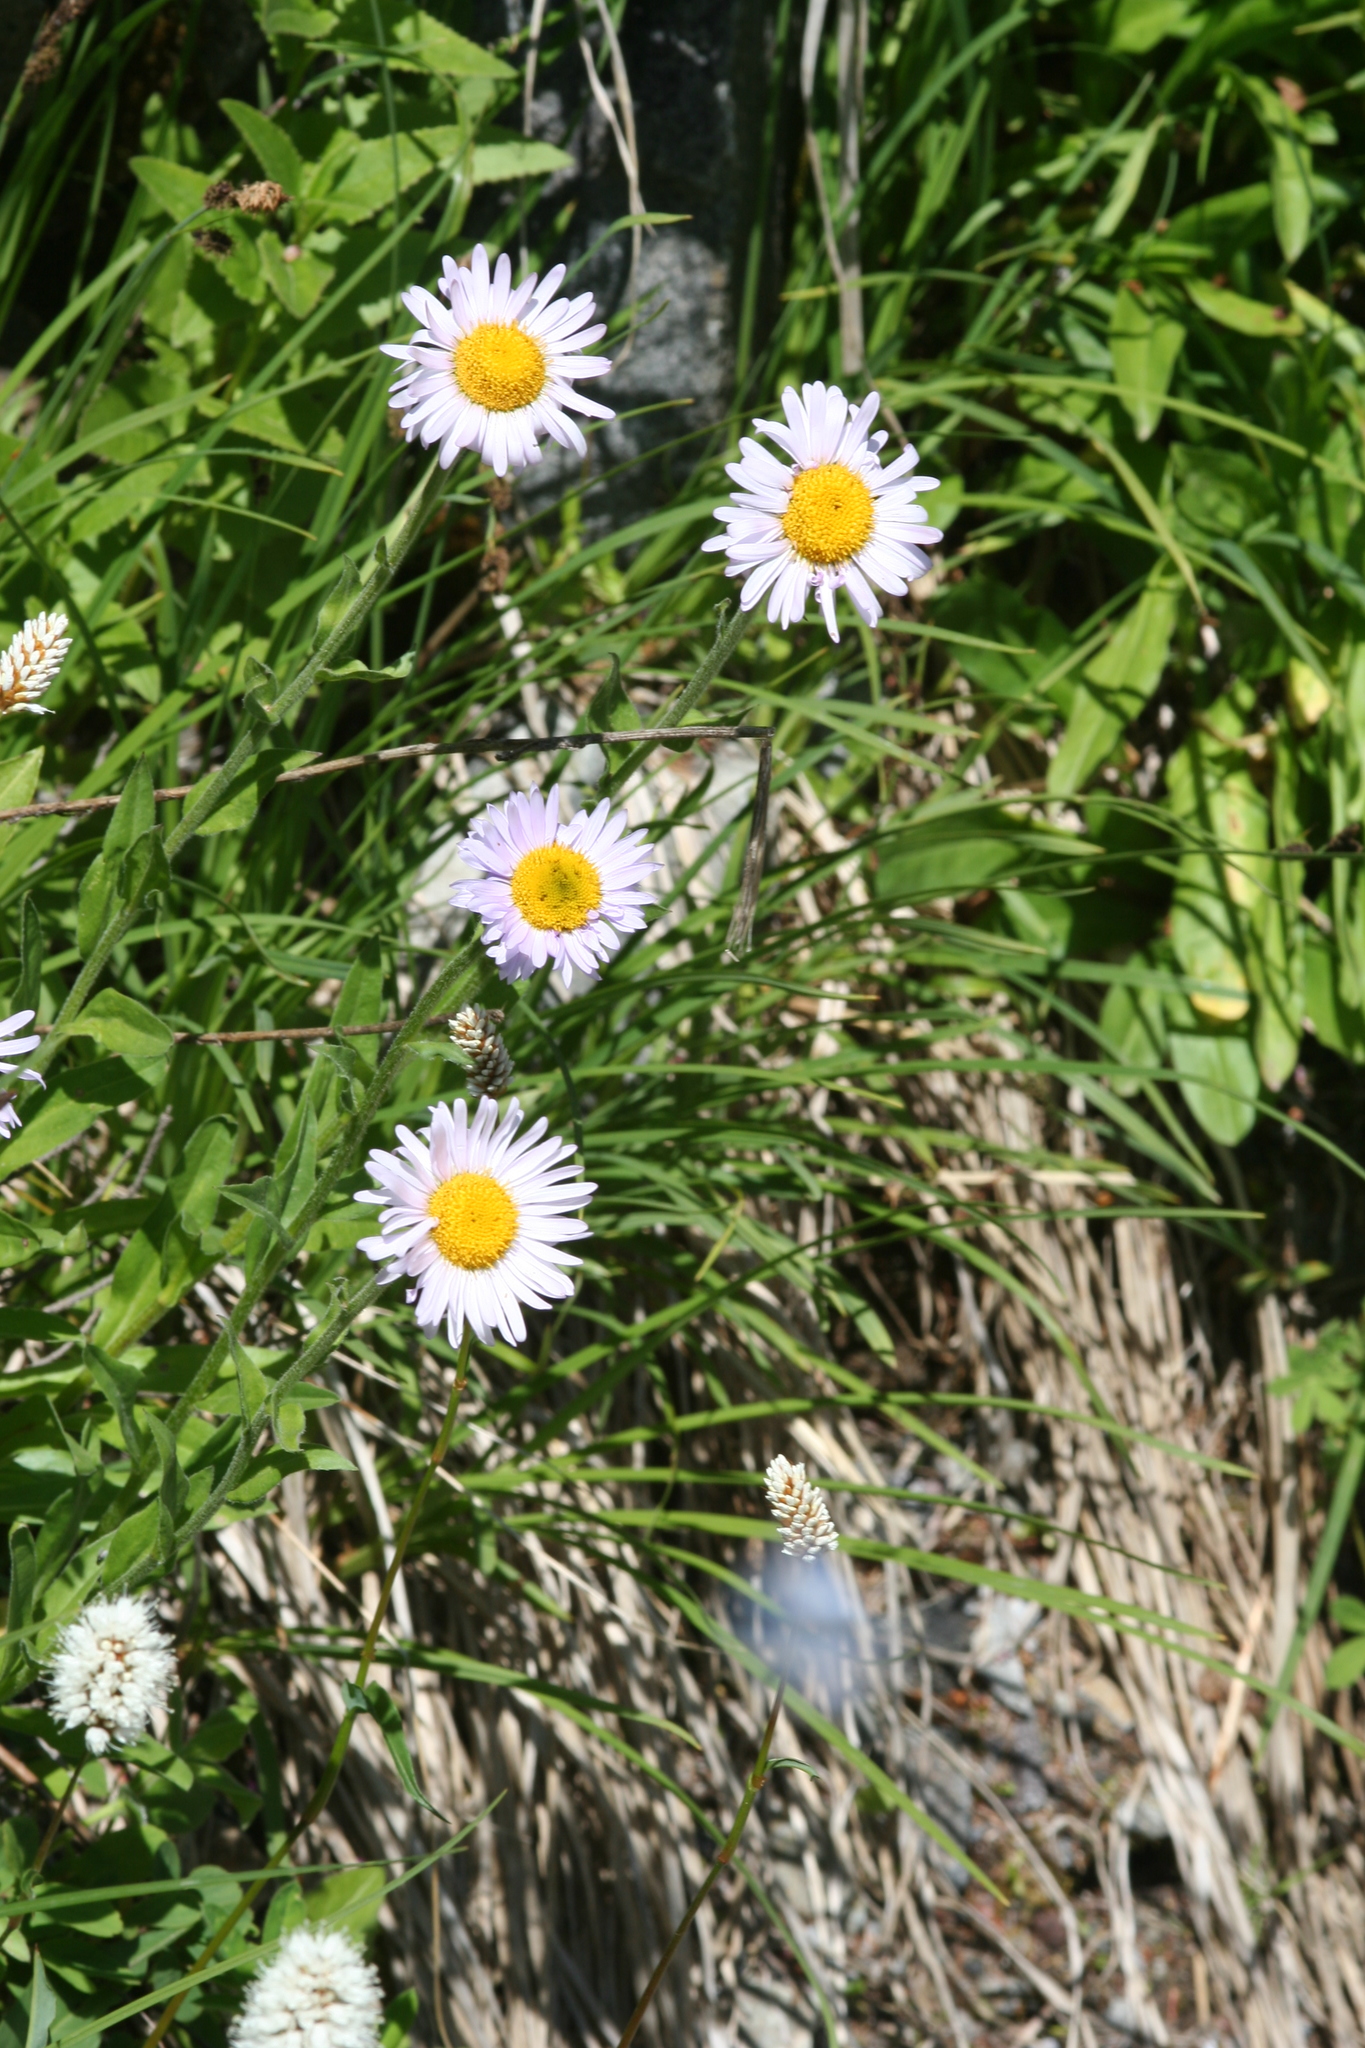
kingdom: Plantae
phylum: Tracheophyta
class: Magnoliopsida
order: Asterales
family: Asteraceae
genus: Erigeron
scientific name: Erigeron glacialis
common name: Subalpine fleabane
